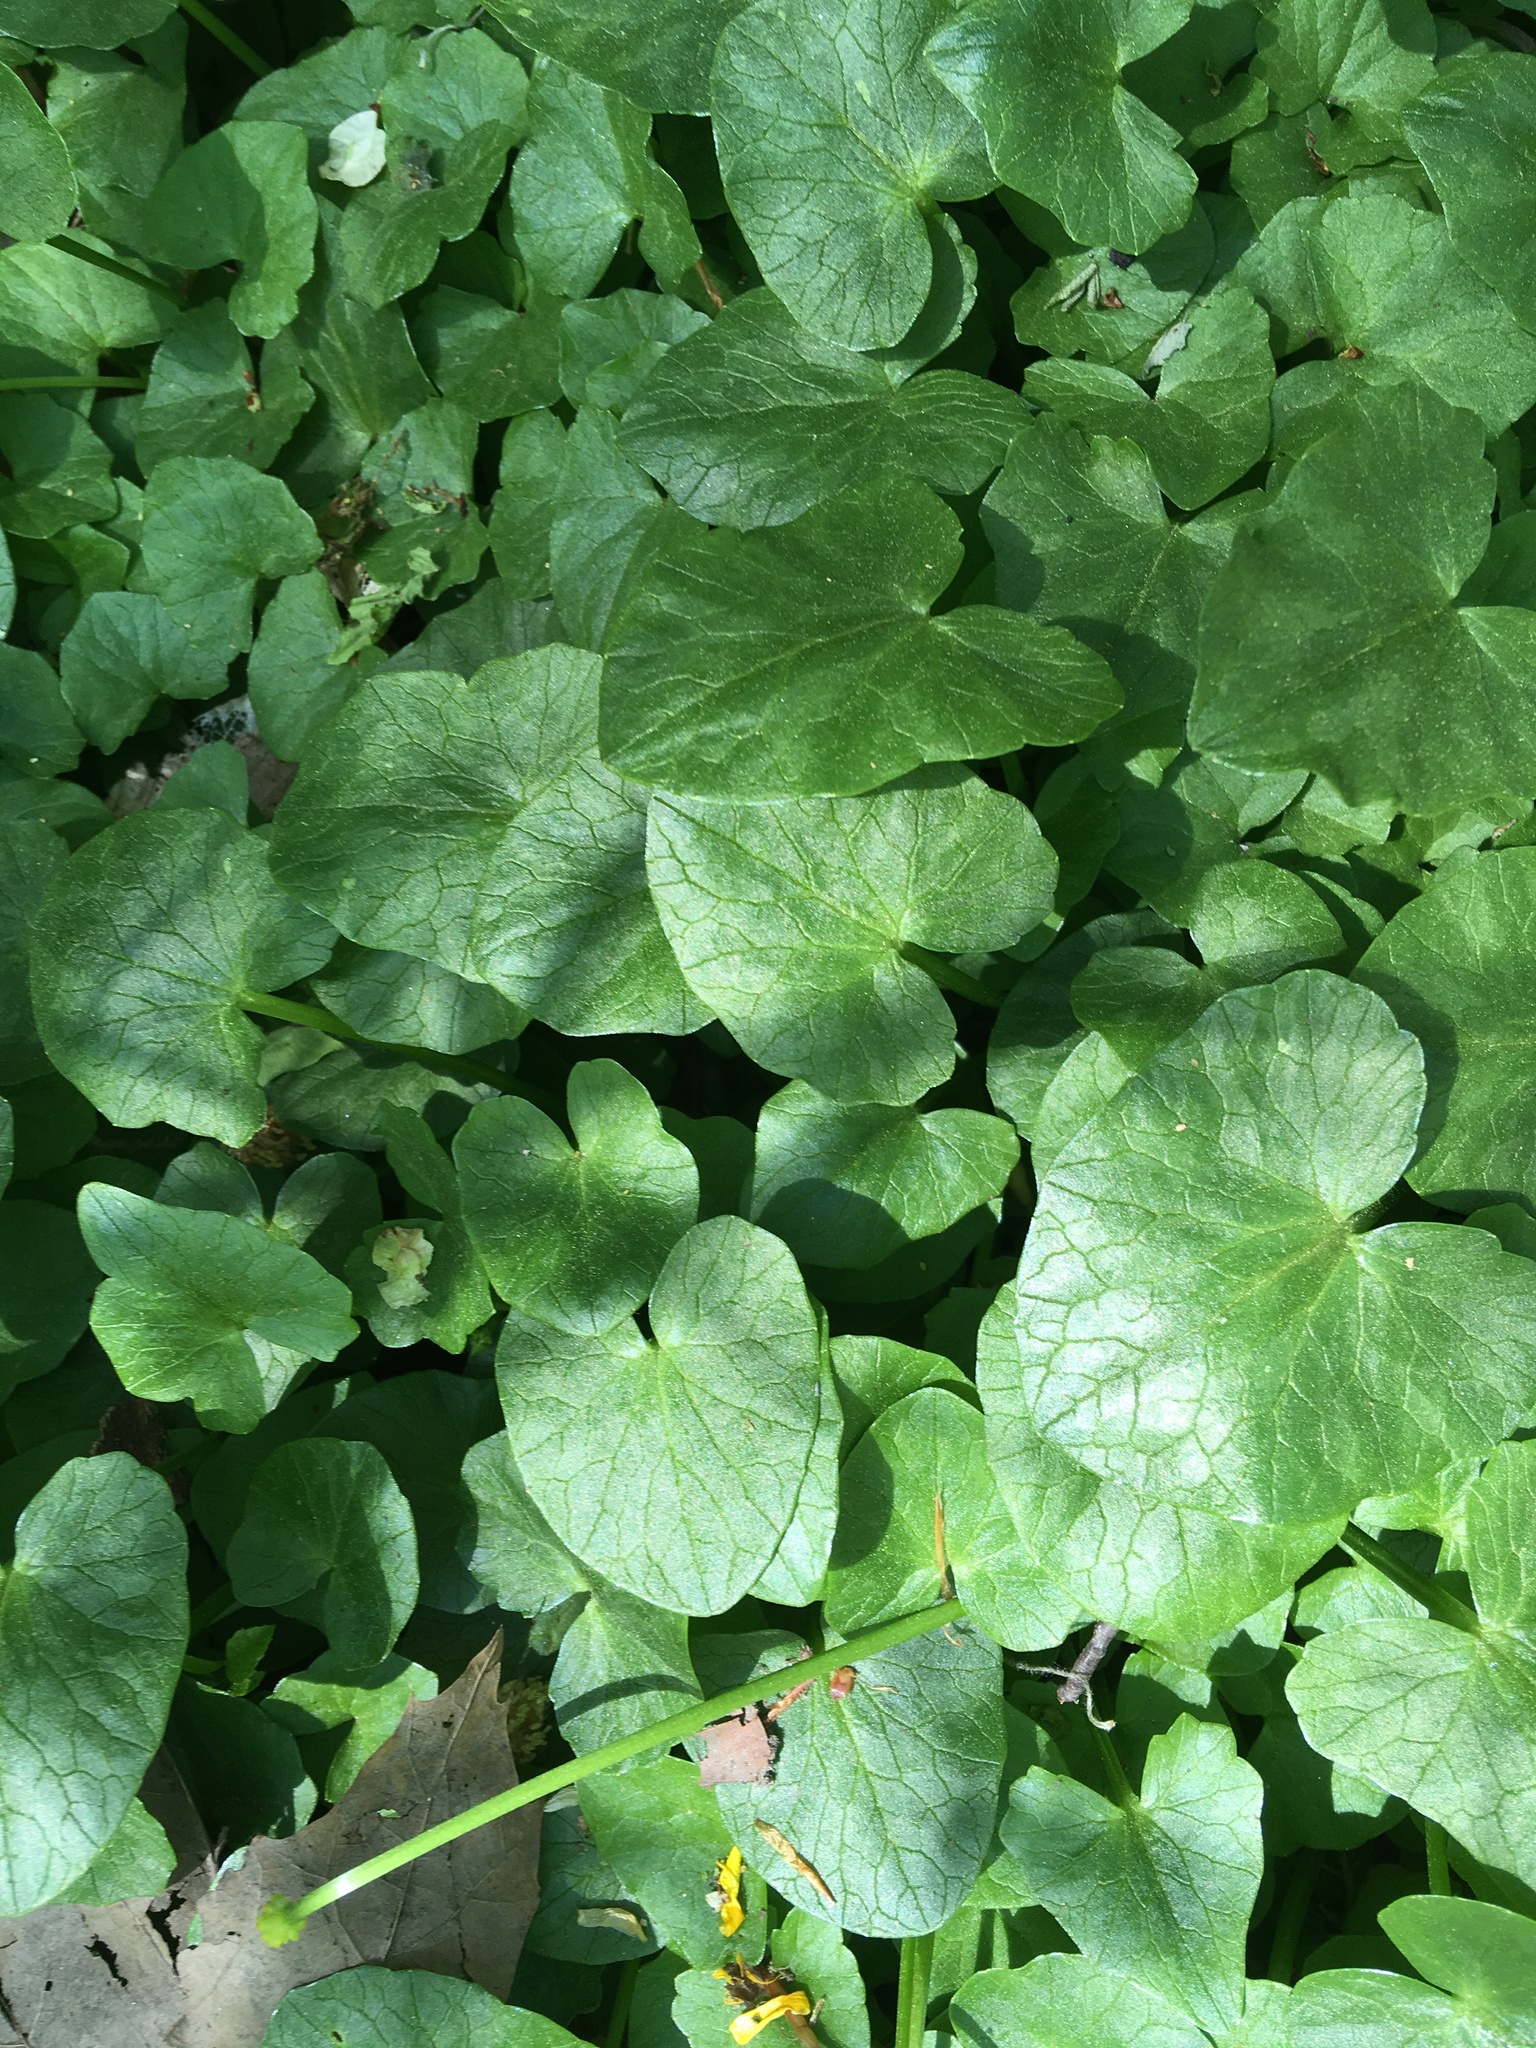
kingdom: Plantae
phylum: Tracheophyta
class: Magnoliopsida
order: Ranunculales
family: Ranunculaceae
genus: Ficaria
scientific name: Ficaria verna
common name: Lesser celandine
